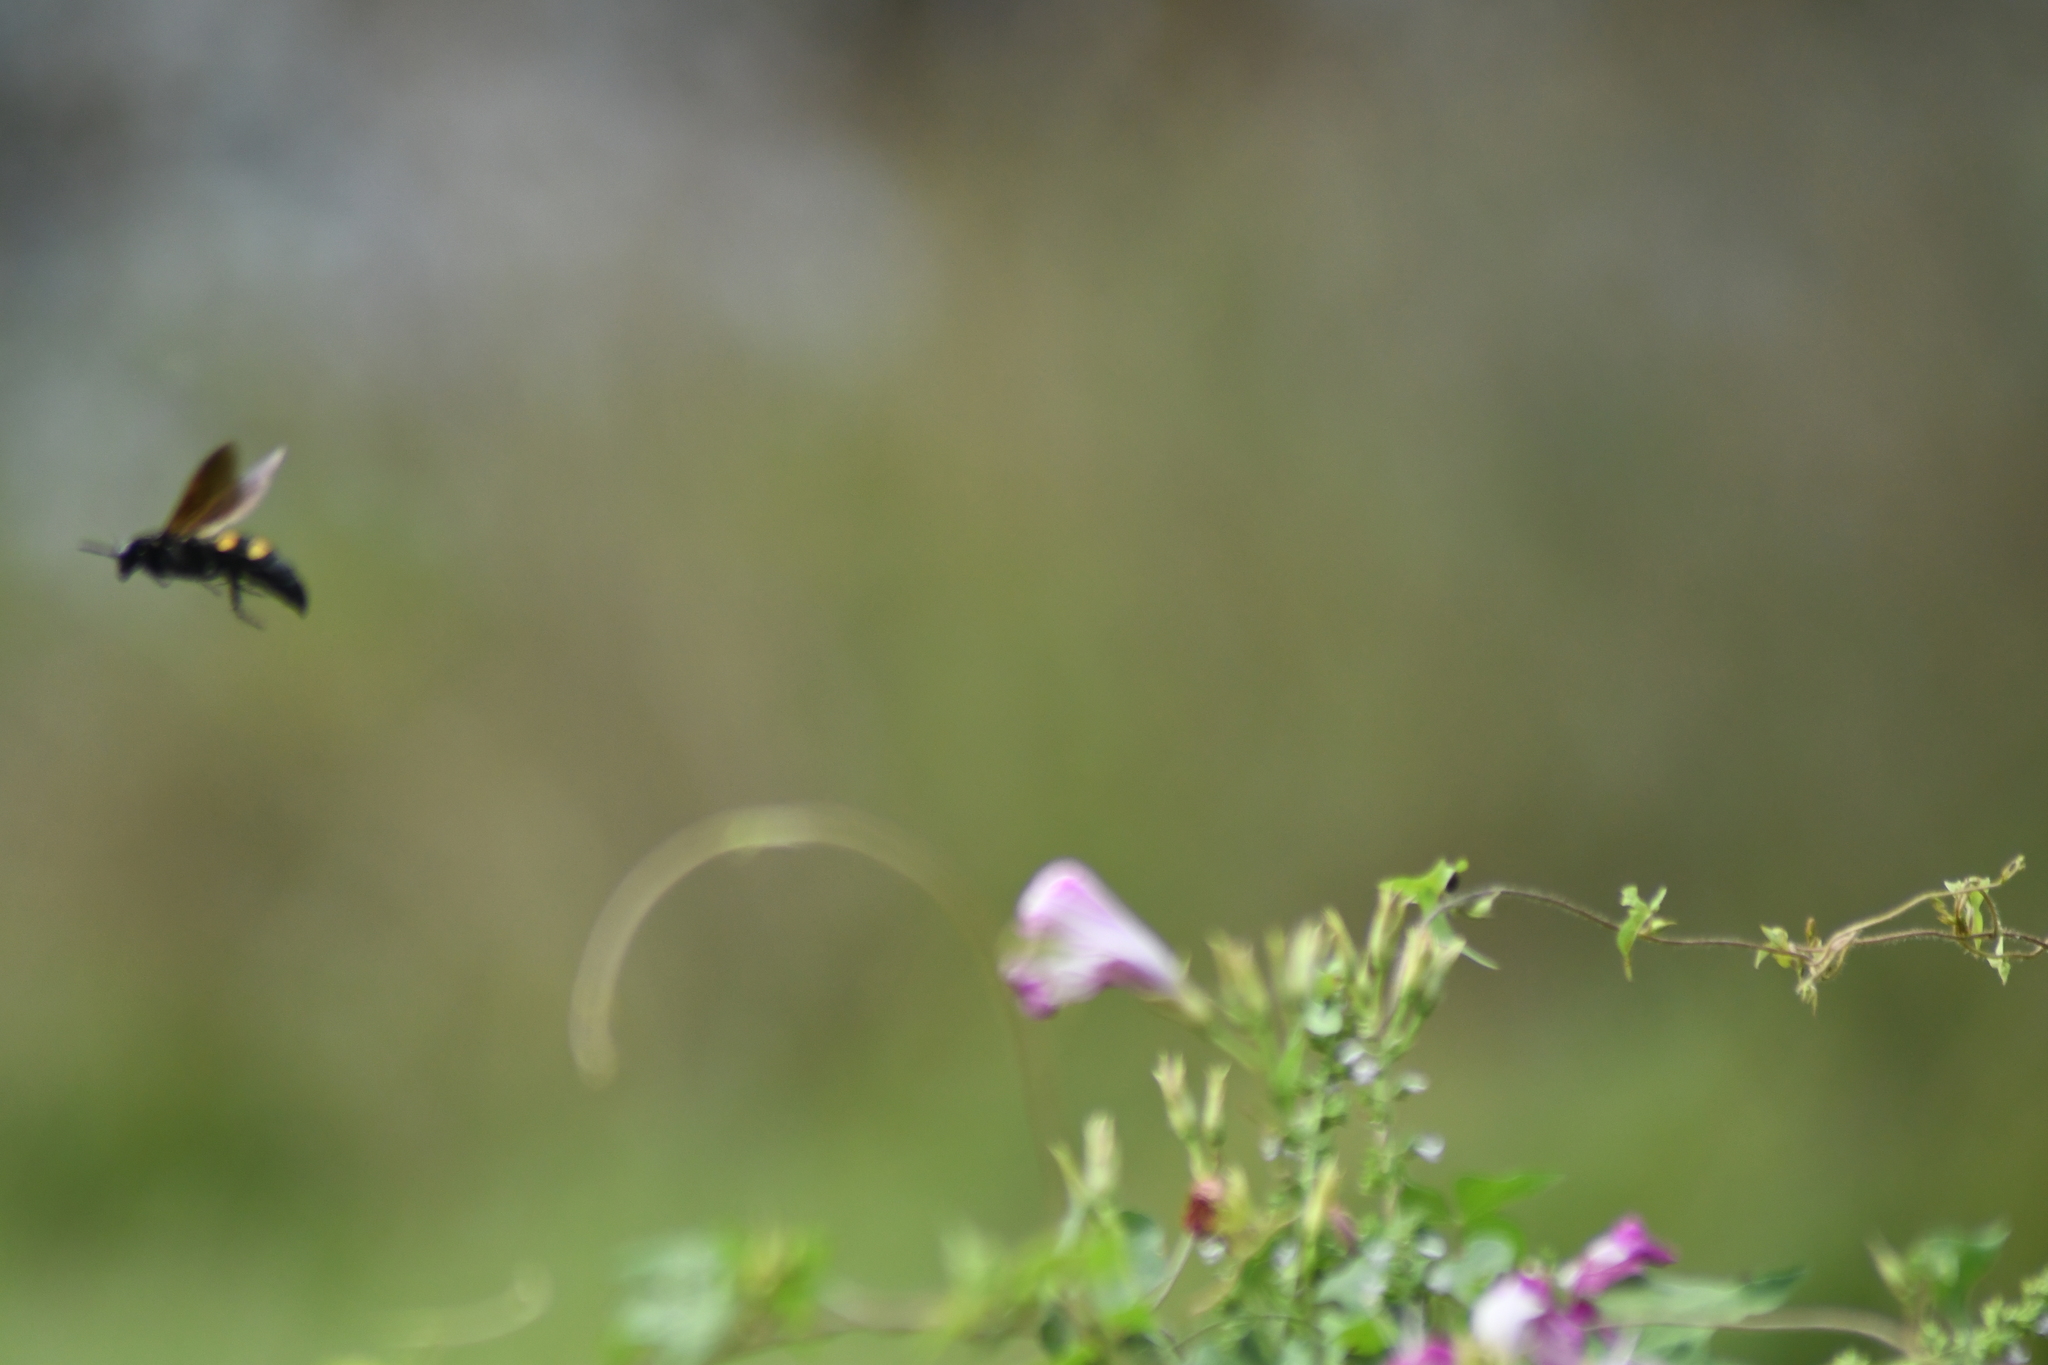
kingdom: Animalia
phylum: Arthropoda
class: Insecta
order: Hymenoptera
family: Scoliidae
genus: Pygodasis
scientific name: Pygodasis
